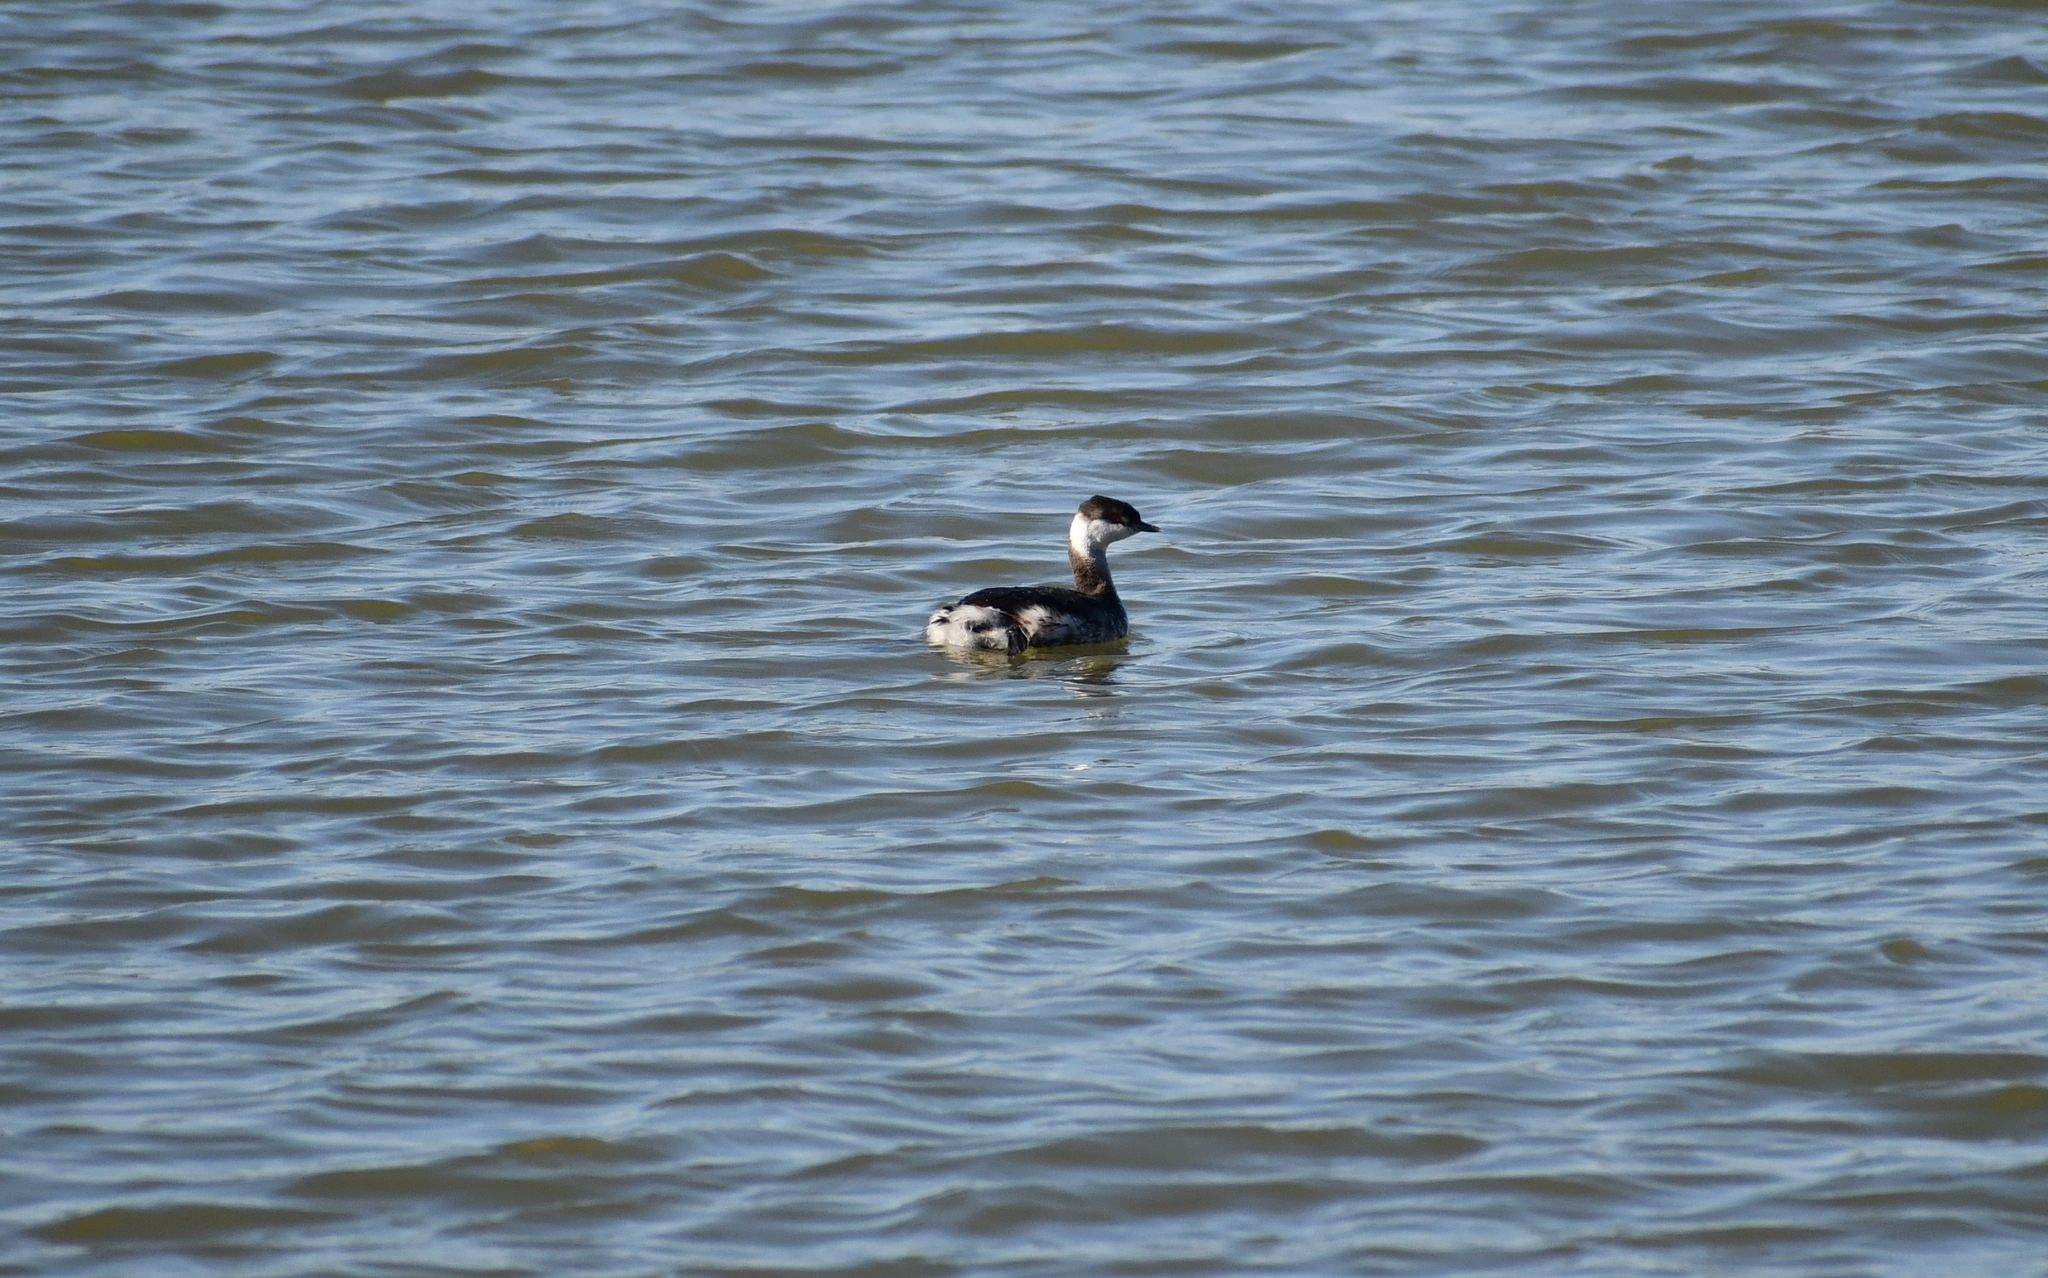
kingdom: Animalia
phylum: Chordata
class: Aves
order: Podicipediformes
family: Podicipedidae
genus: Podiceps
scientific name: Podiceps auritus
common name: Horned grebe
